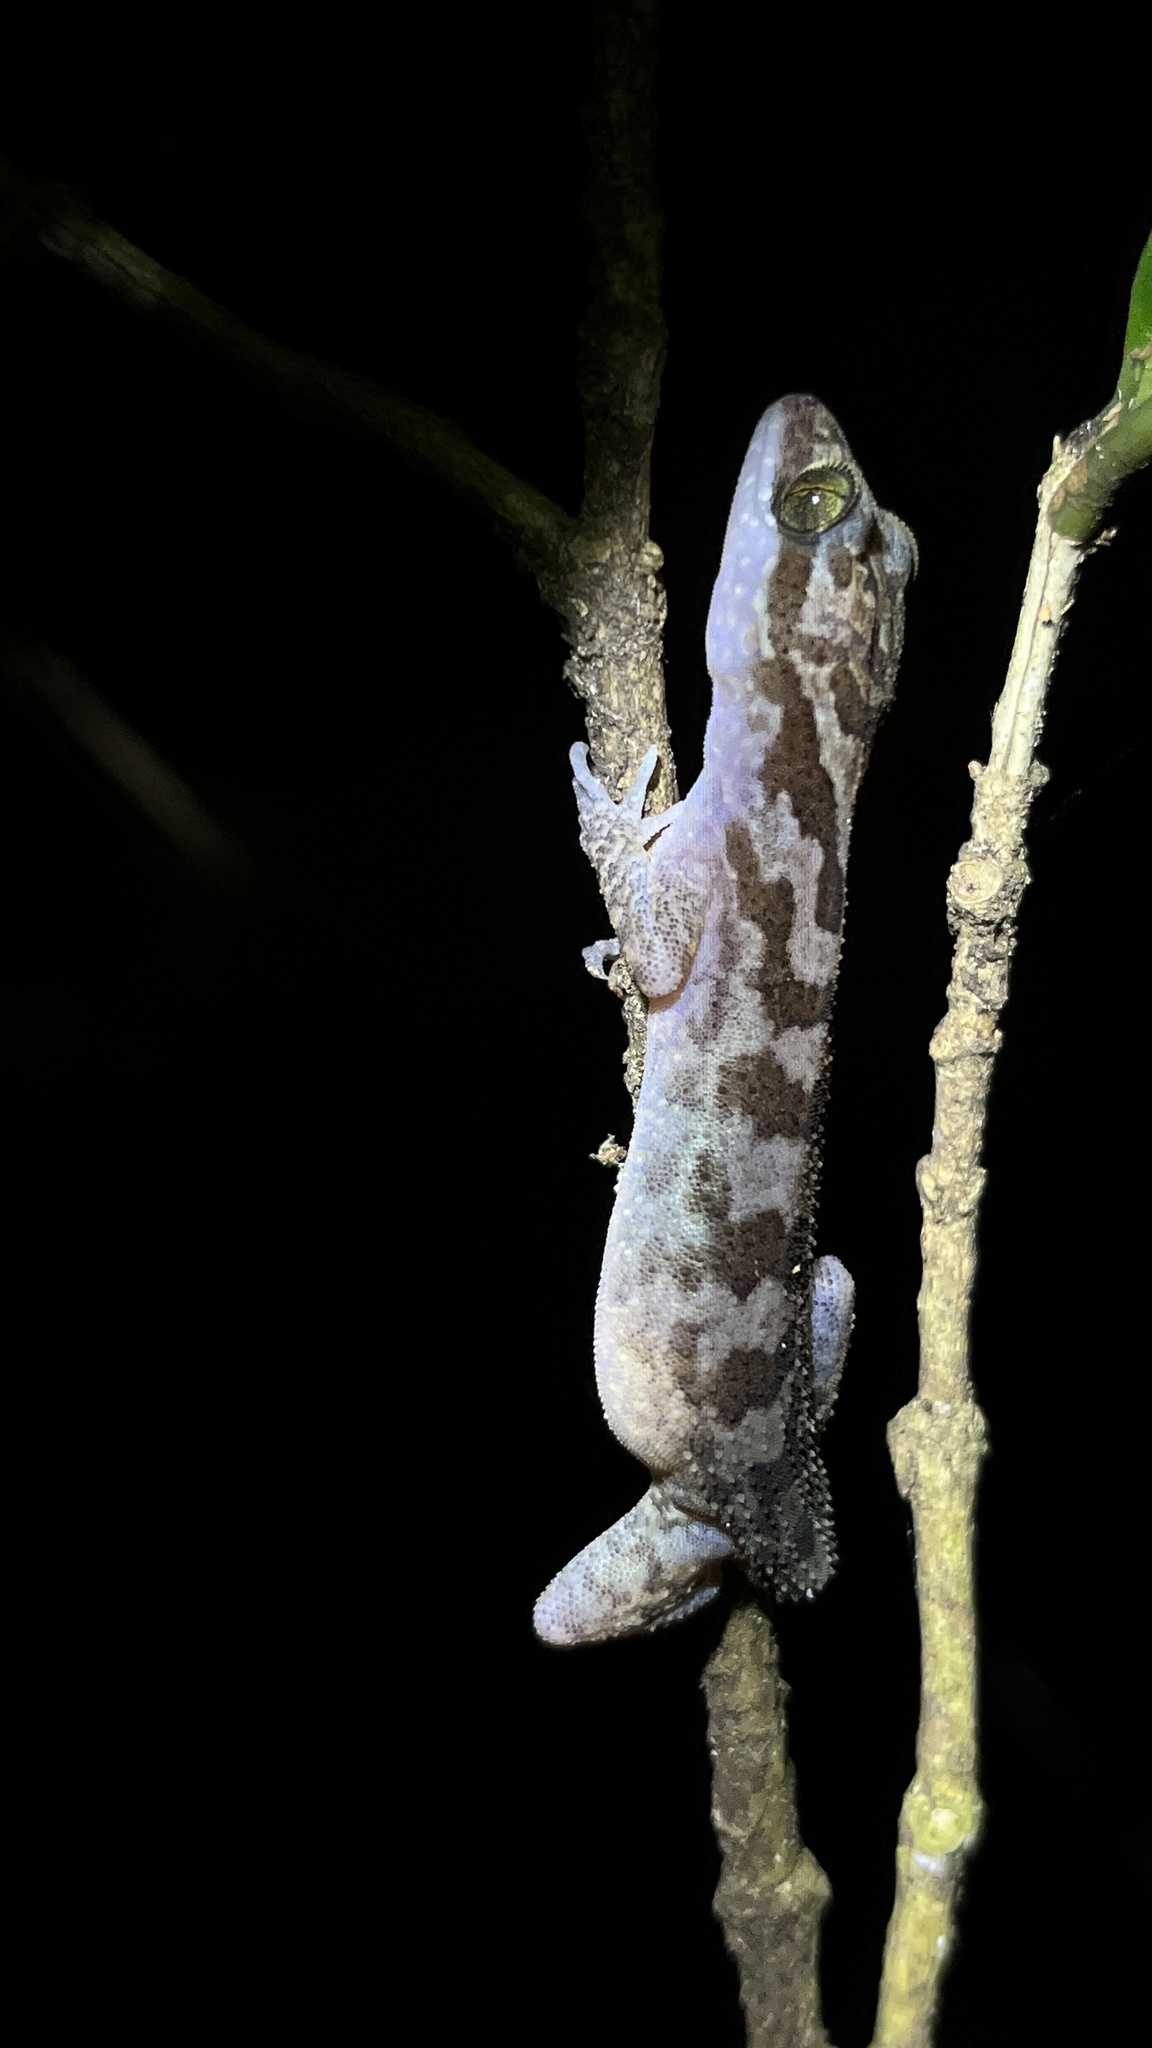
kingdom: Animalia
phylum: Chordata
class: Squamata
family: Gekkonidae
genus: Cyrtodactylus
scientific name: Cyrtodactylus cattienensis
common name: Cat tien bent-toed gecko
